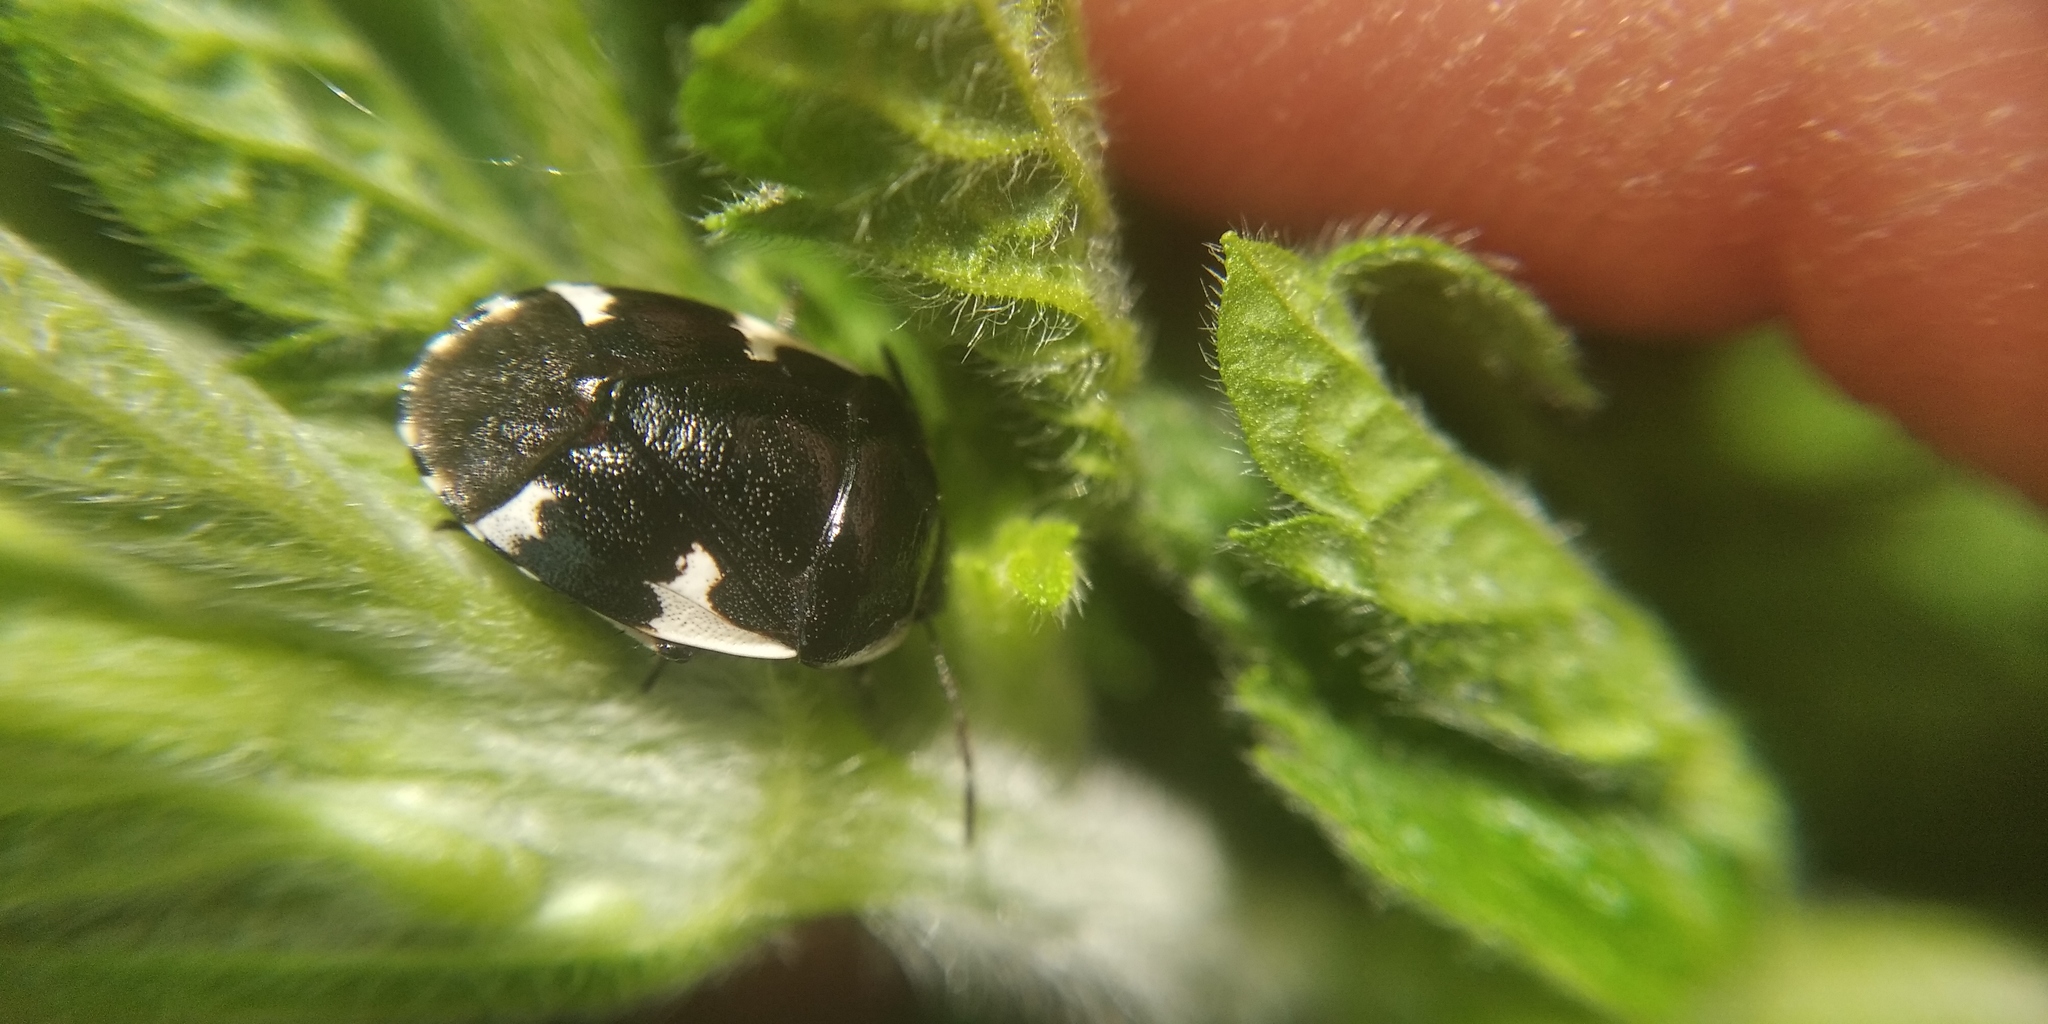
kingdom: Animalia
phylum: Arthropoda
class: Insecta
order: Hemiptera
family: Cydnidae
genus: Tritomegas
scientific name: Tritomegas sexmaculatus
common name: Rambur's pied shieldbug
